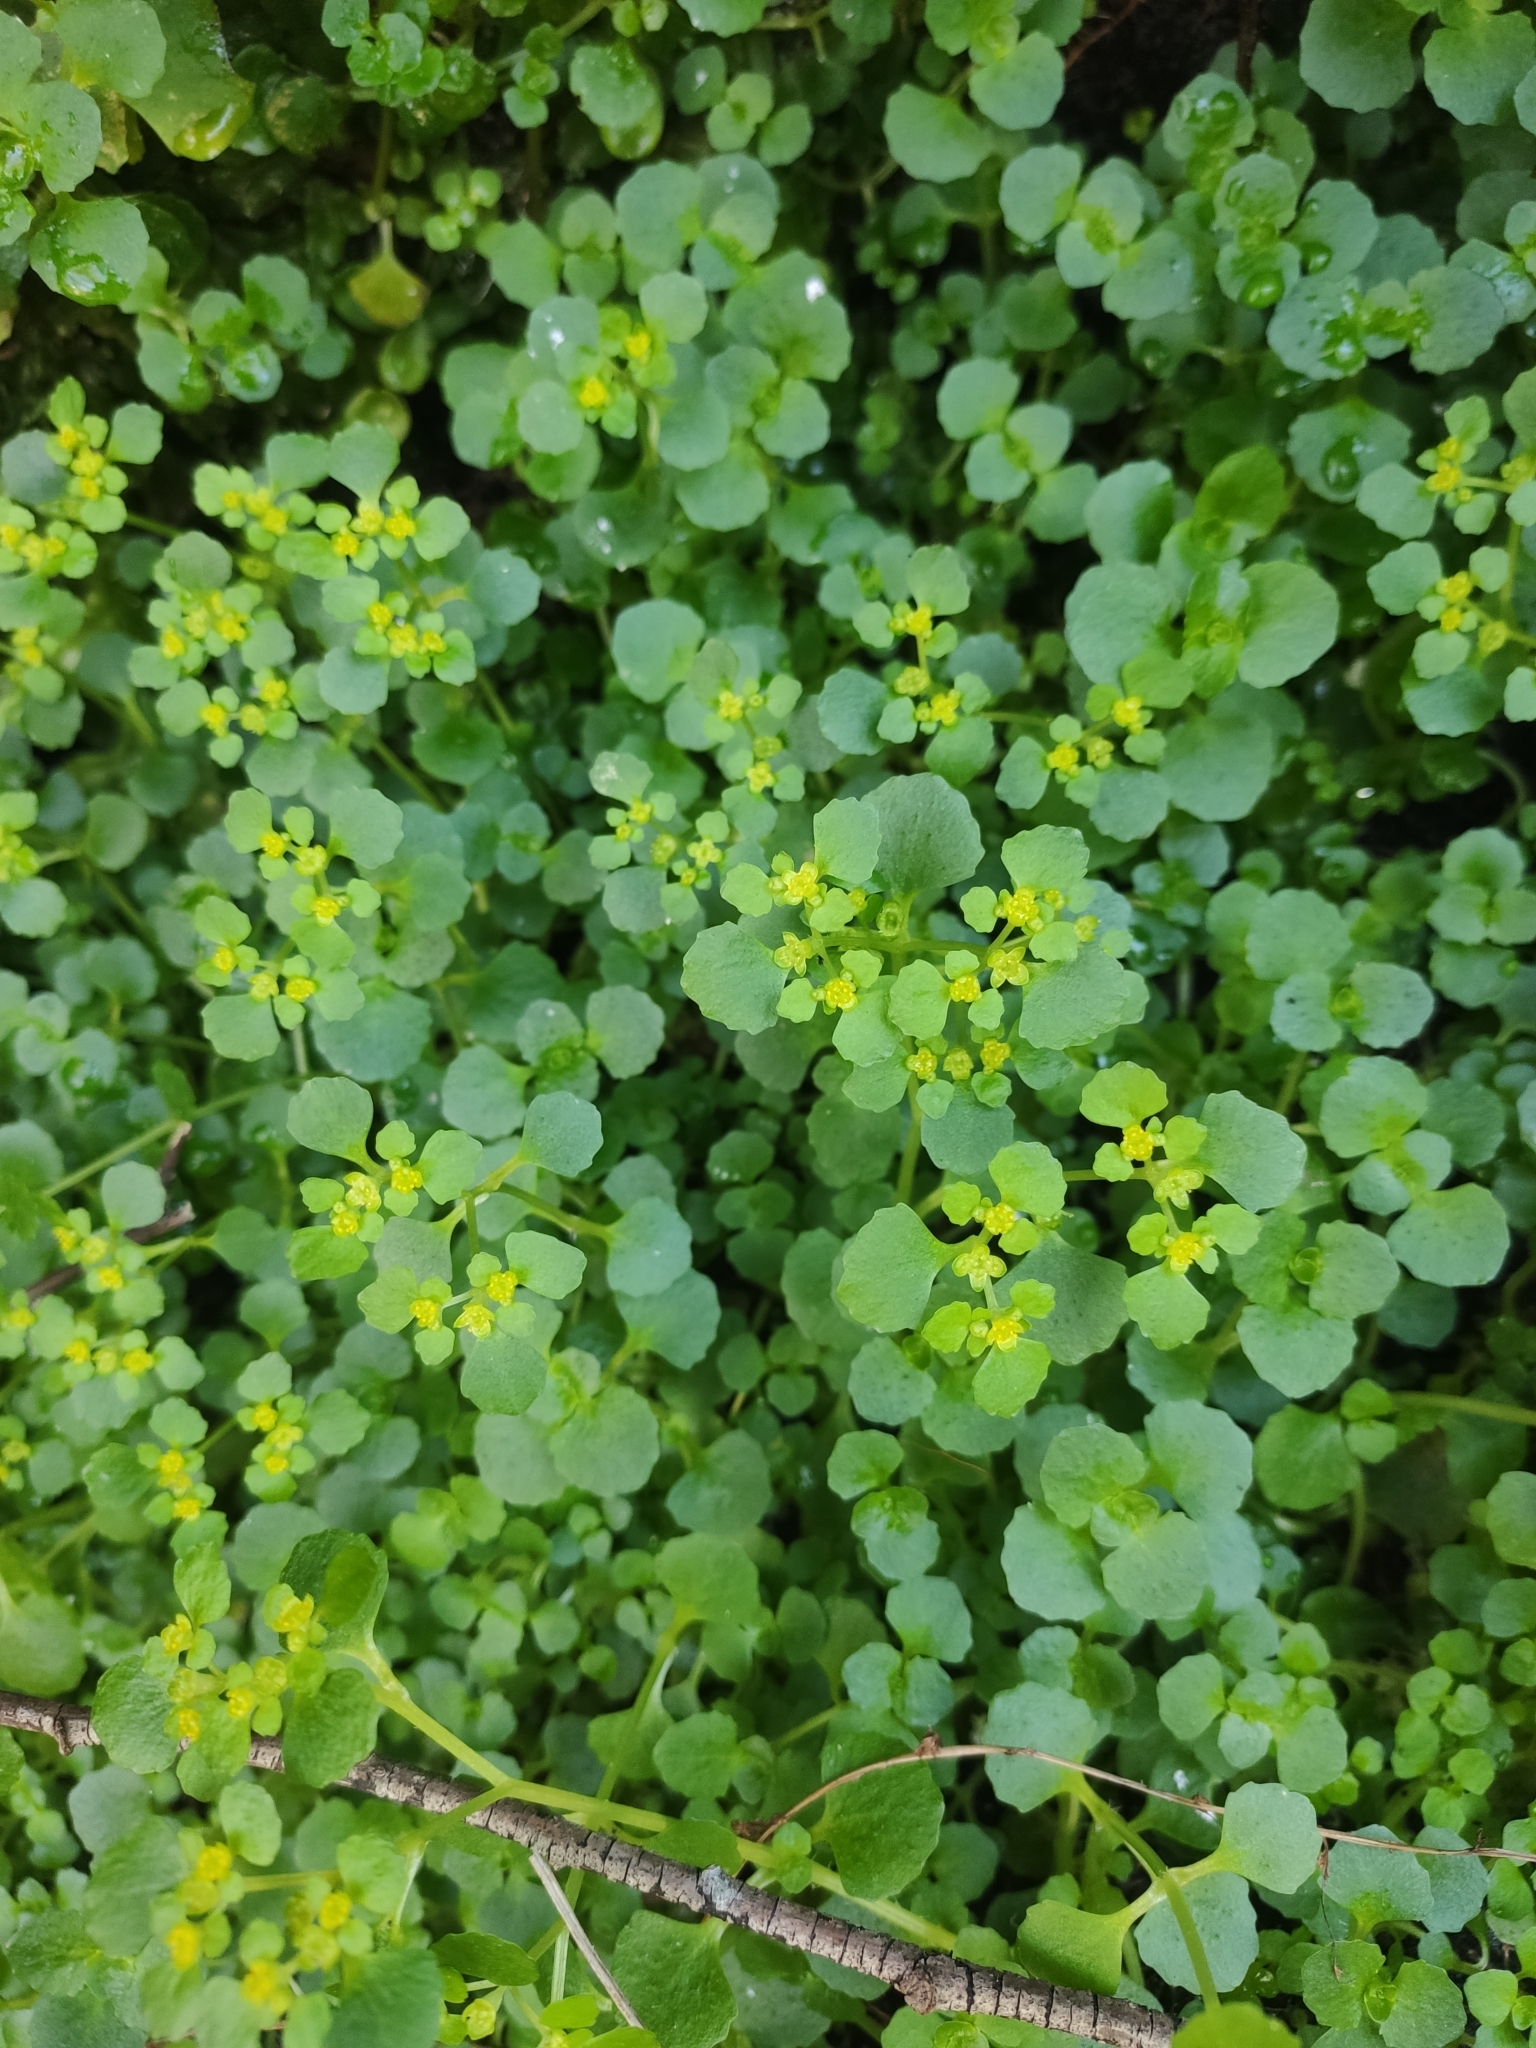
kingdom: Plantae
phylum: Tracheophyta
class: Magnoliopsida
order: Saxifragales
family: Saxifragaceae
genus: Chrysosplenium
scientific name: Chrysosplenium oppositifolium
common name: Opposite-leaved golden-saxifrage
